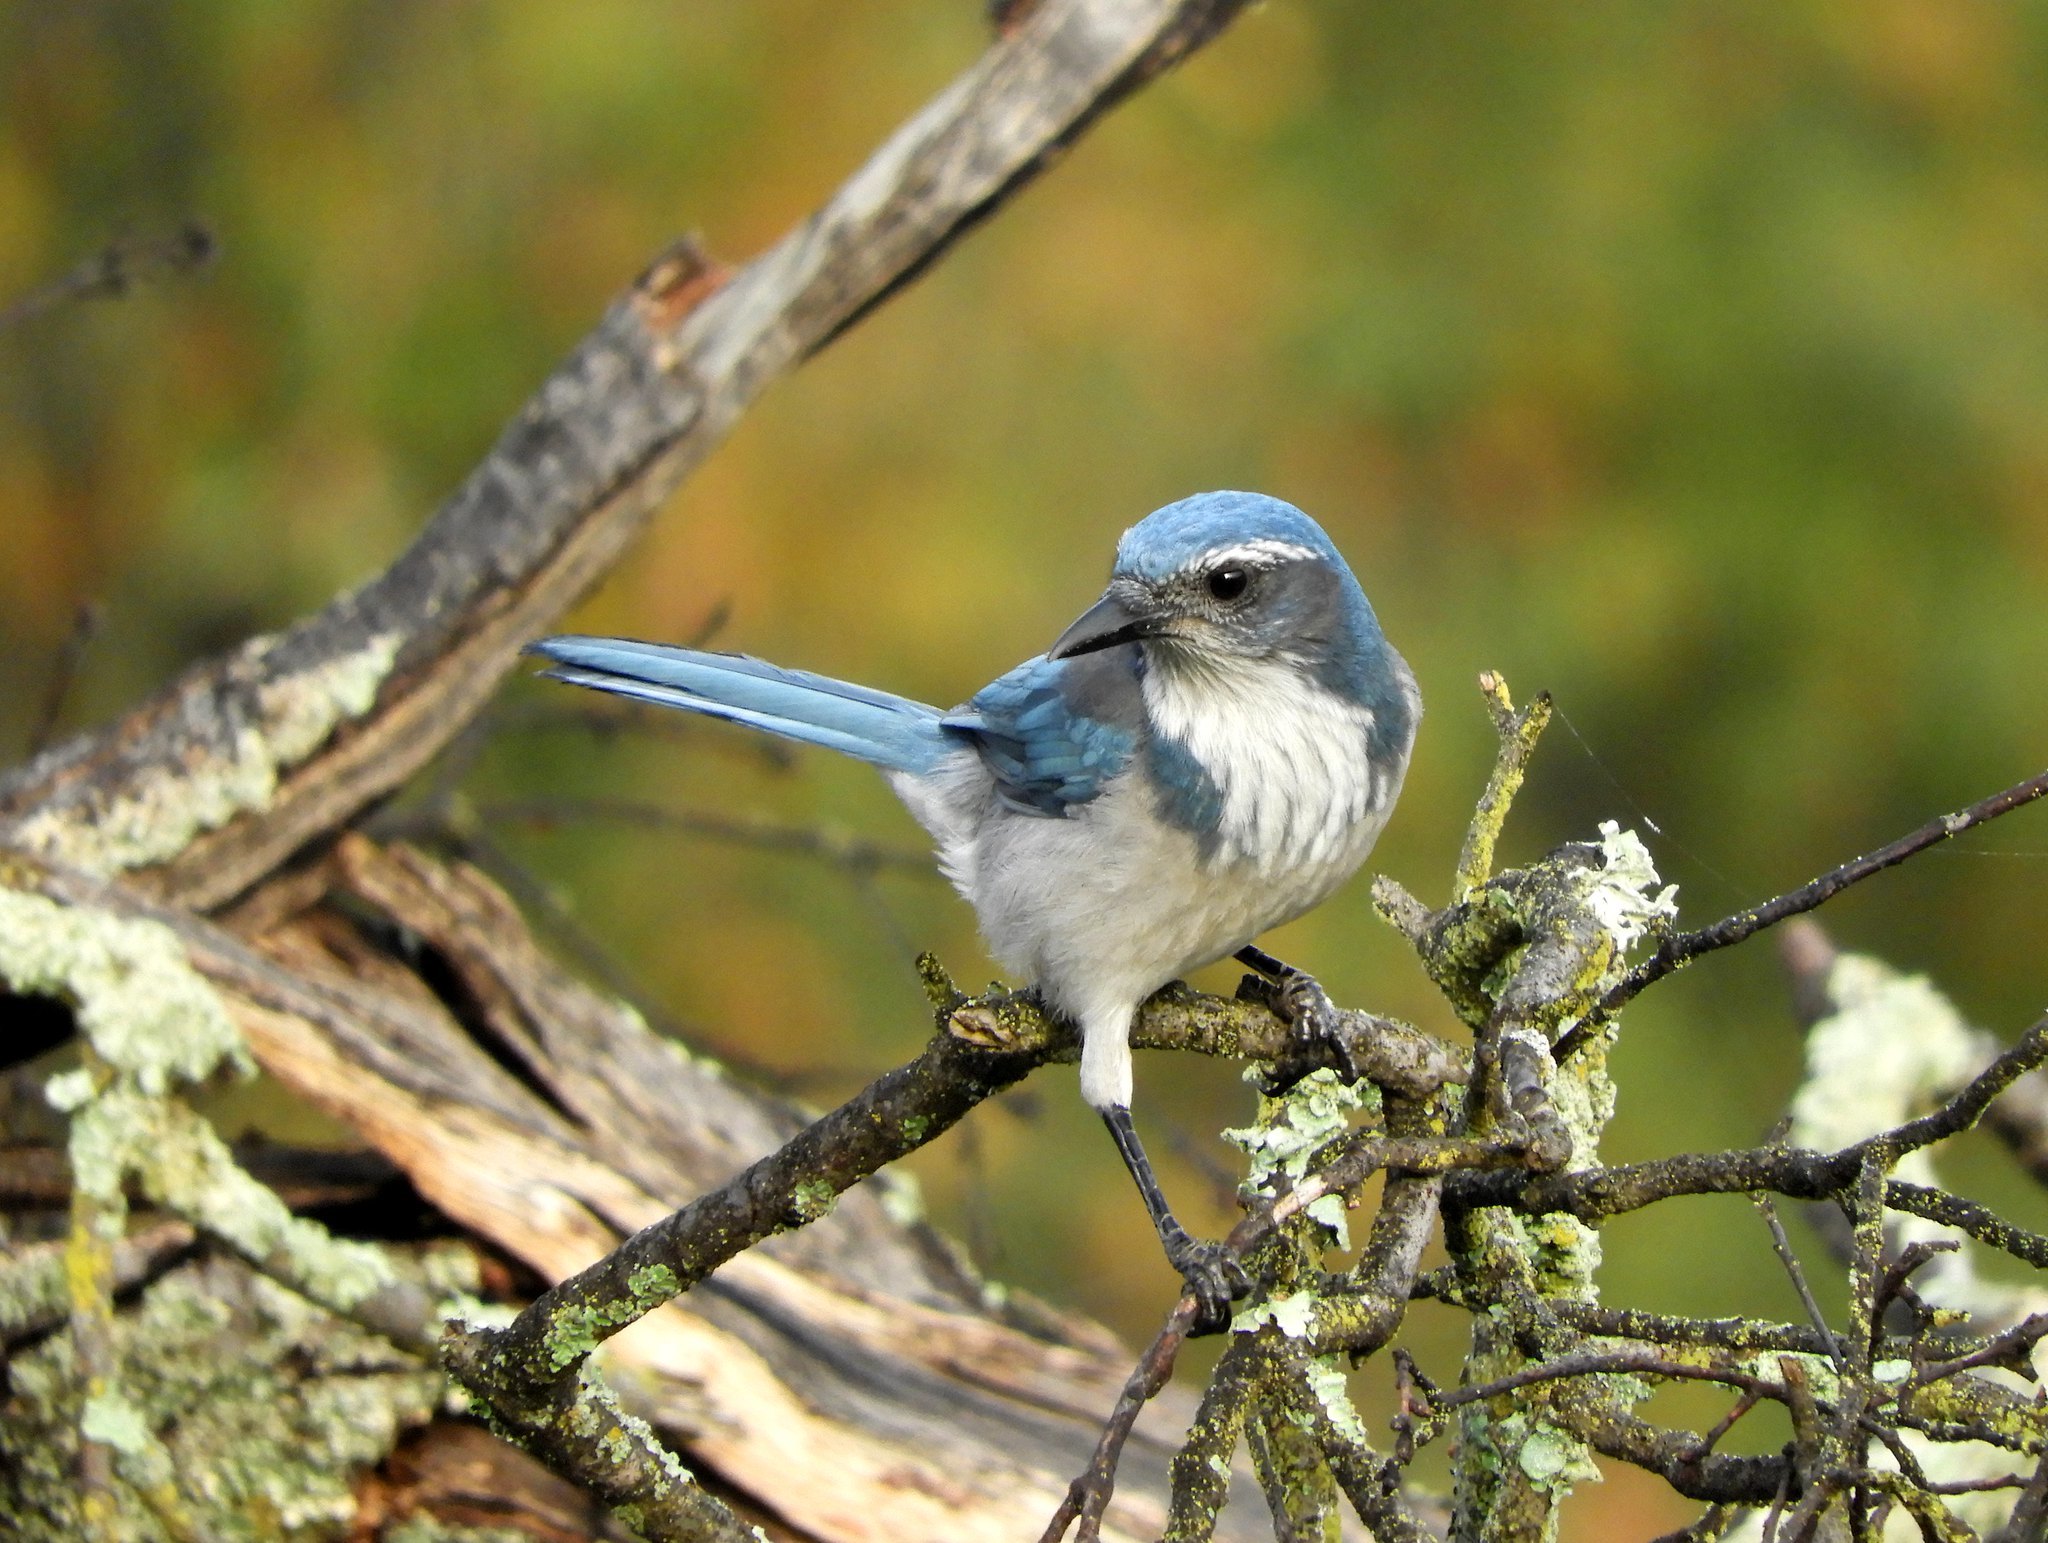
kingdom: Animalia
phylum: Chordata
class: Aves
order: Passeriformes
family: Corvidae
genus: Aphelocoma
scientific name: Aphelocoma californica
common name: California scrub-jay
